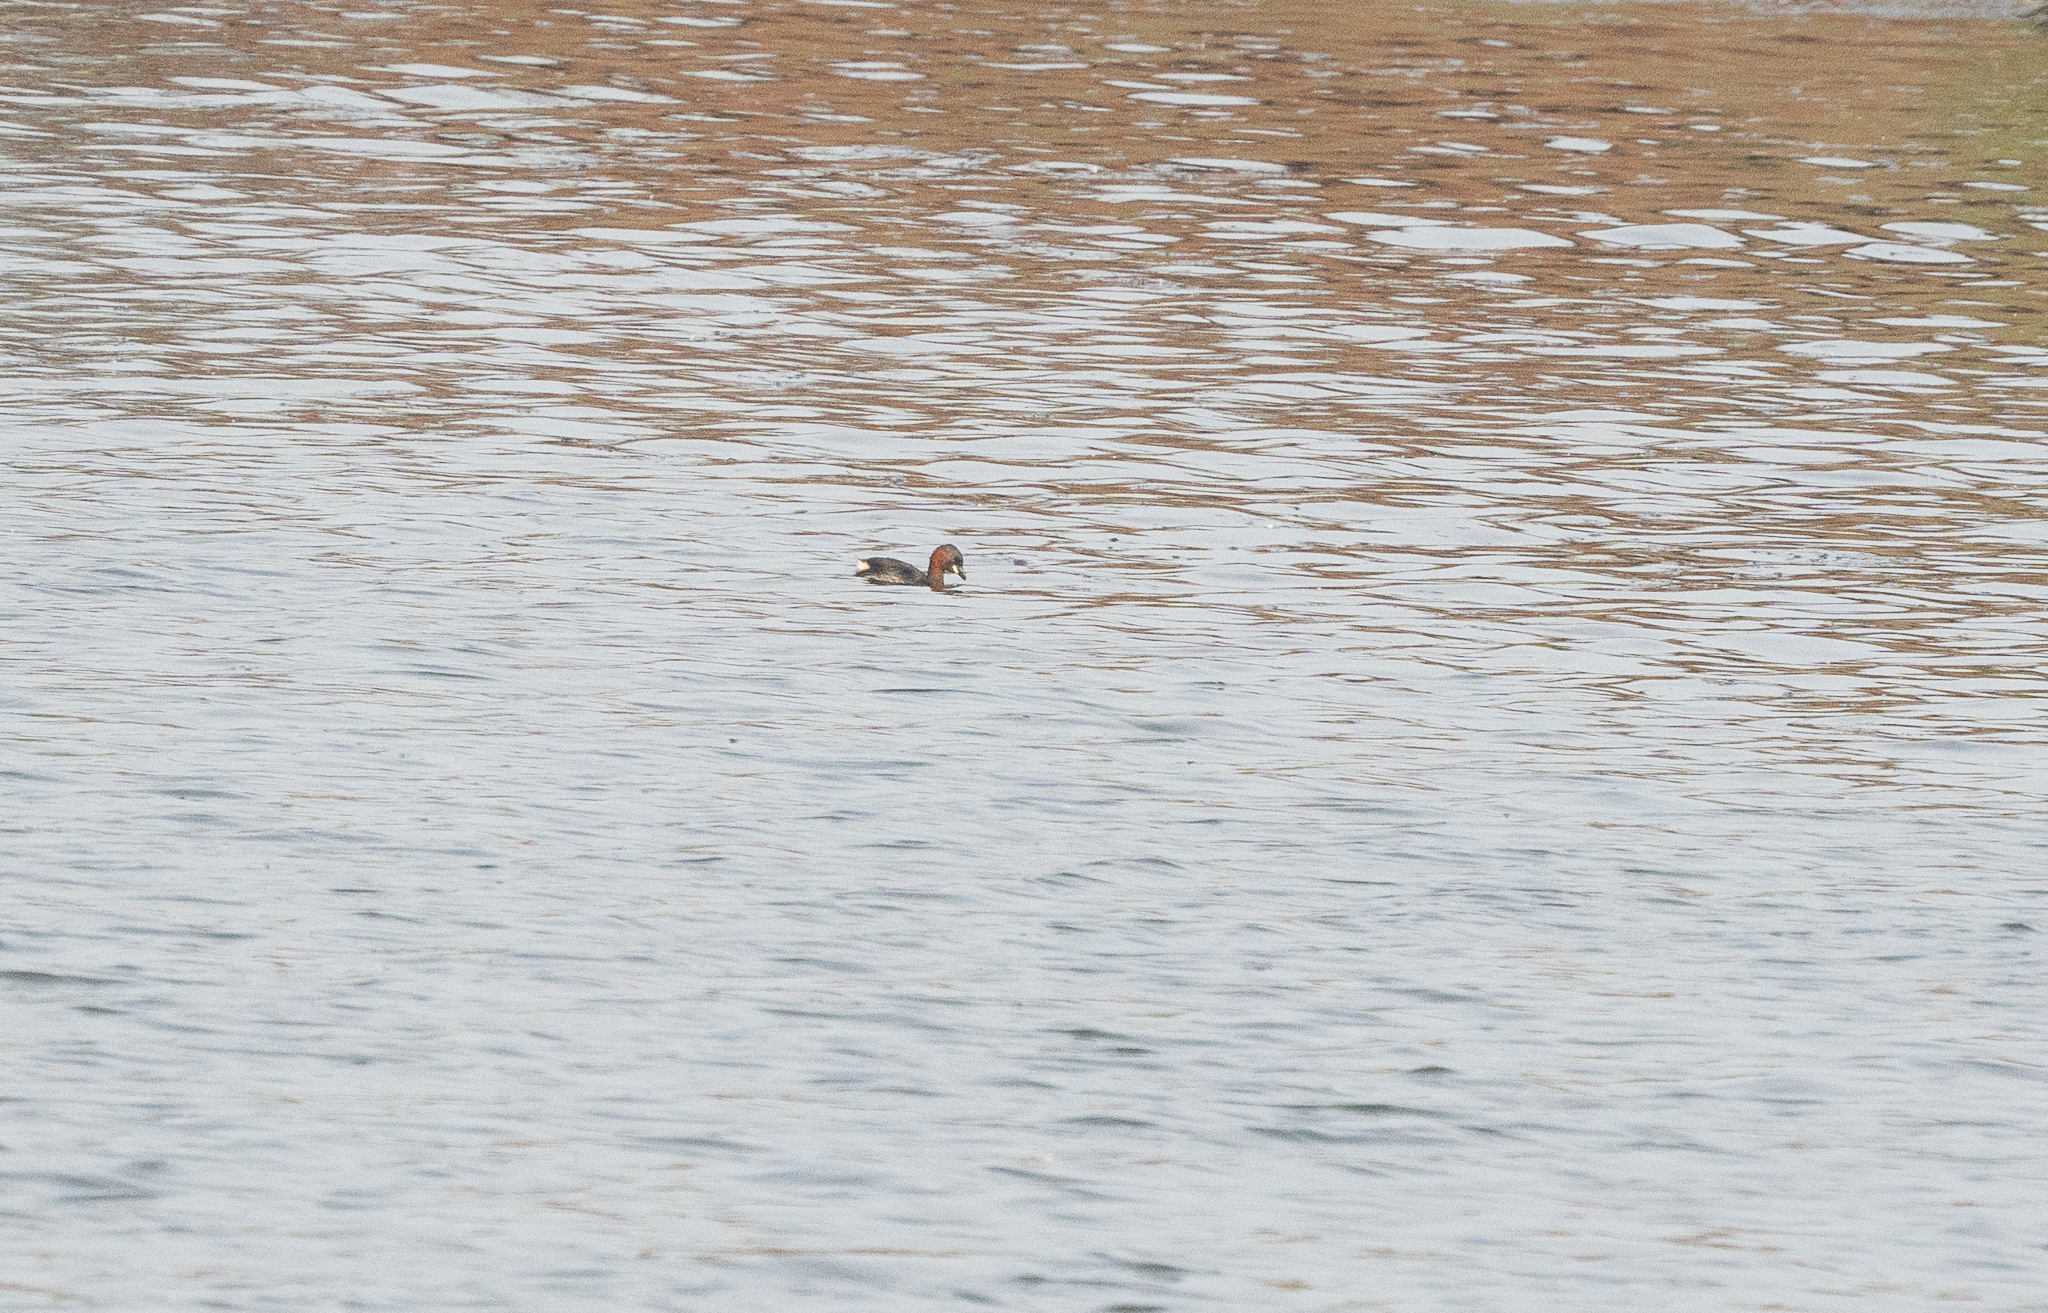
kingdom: Animalia
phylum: Chordata
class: Aves
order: Podicipediformes
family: Podicipedidae
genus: Tachybaptus
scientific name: Tachybaptus ruficollis
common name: Little grebe
